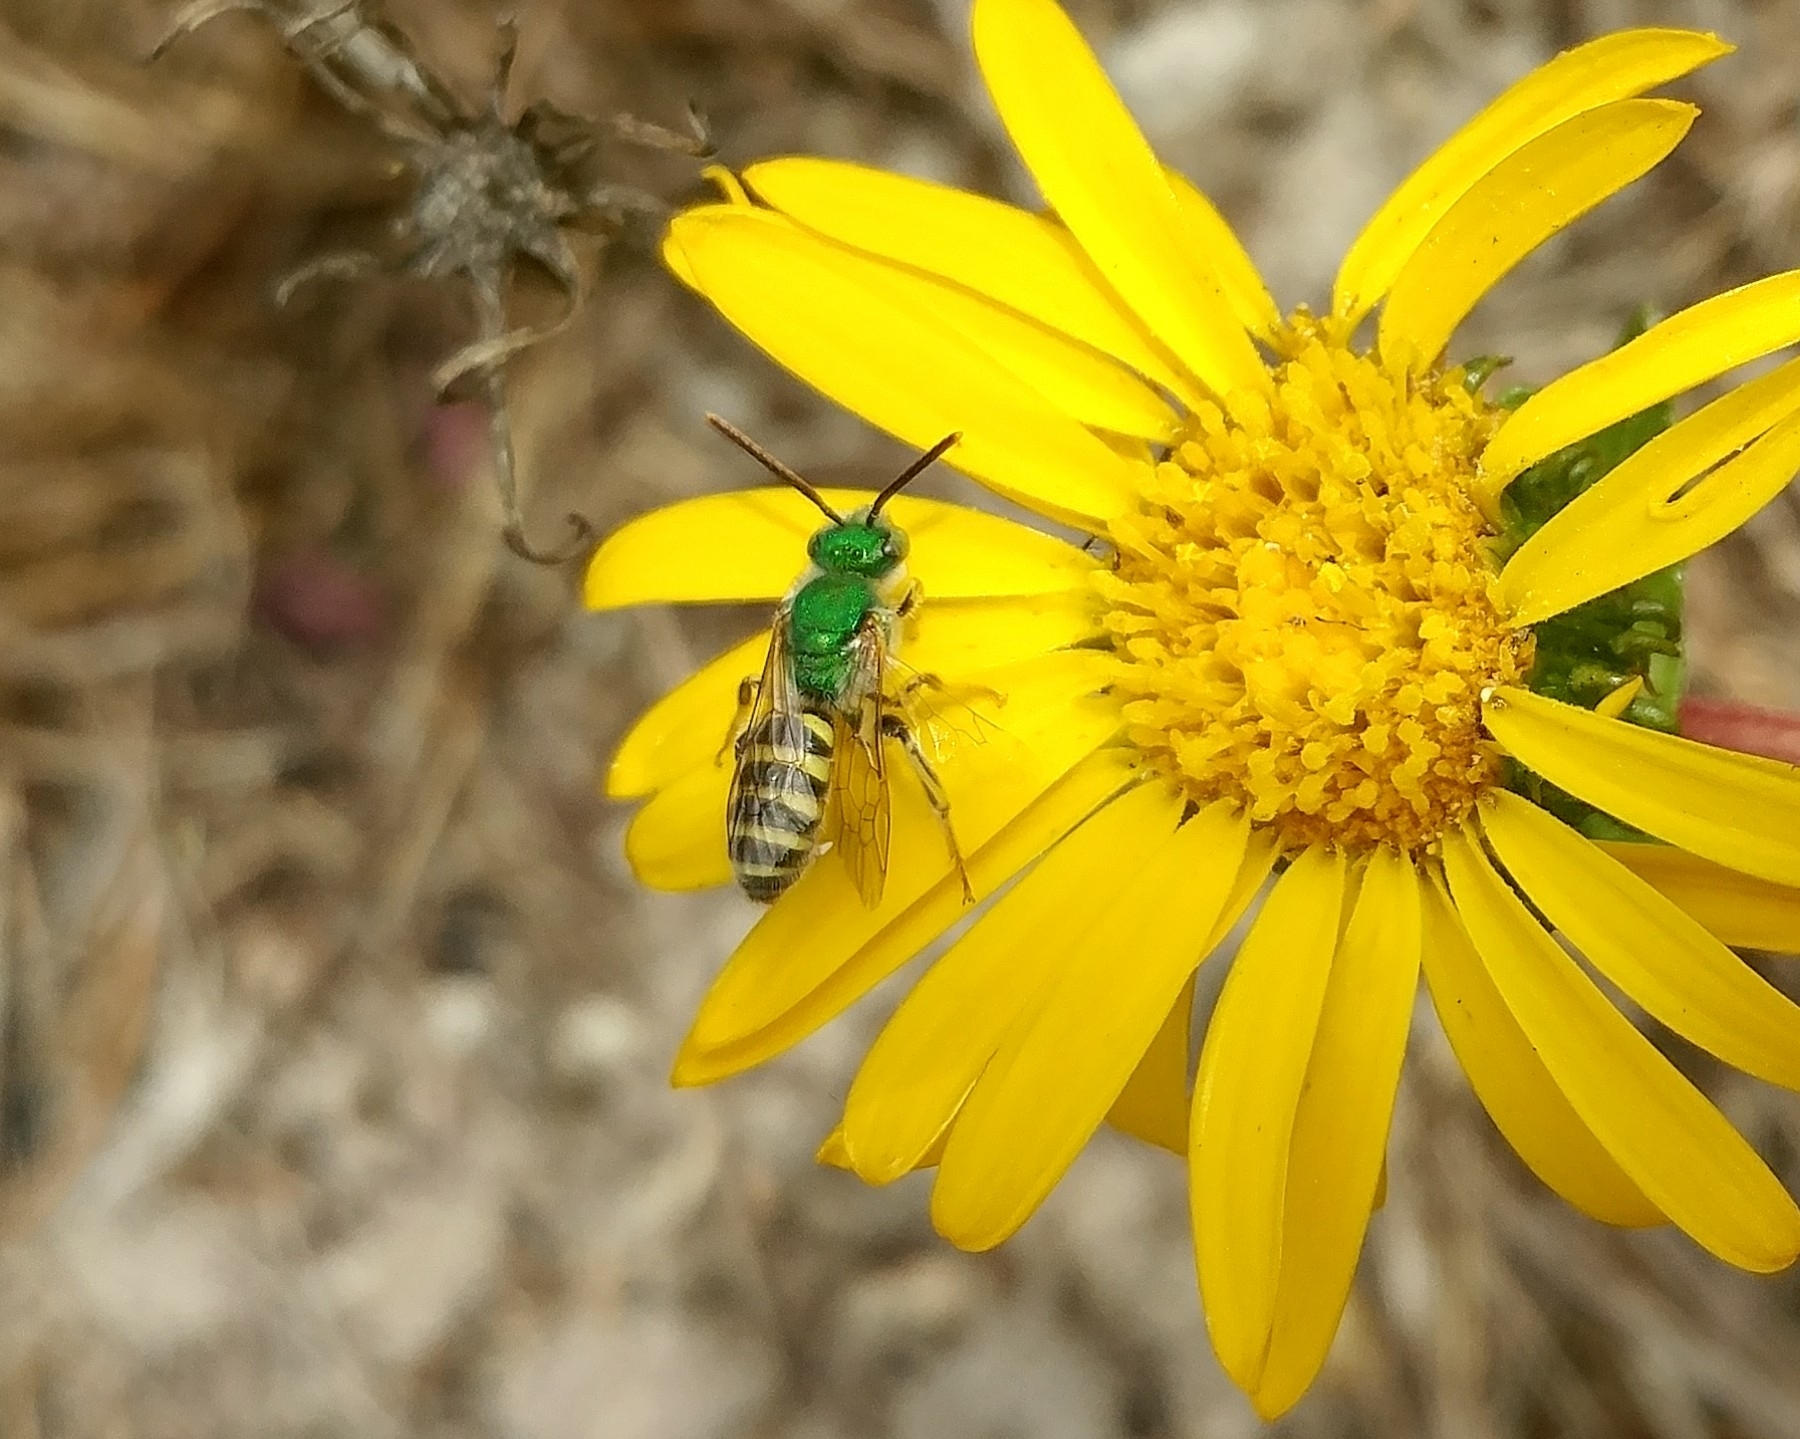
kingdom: Animalia
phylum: Arthropoda
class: Insecta
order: Hymenoptera
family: Halictidae
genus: Agapostemon
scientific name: Agapostemon texanus
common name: Texas striped sweat bee
